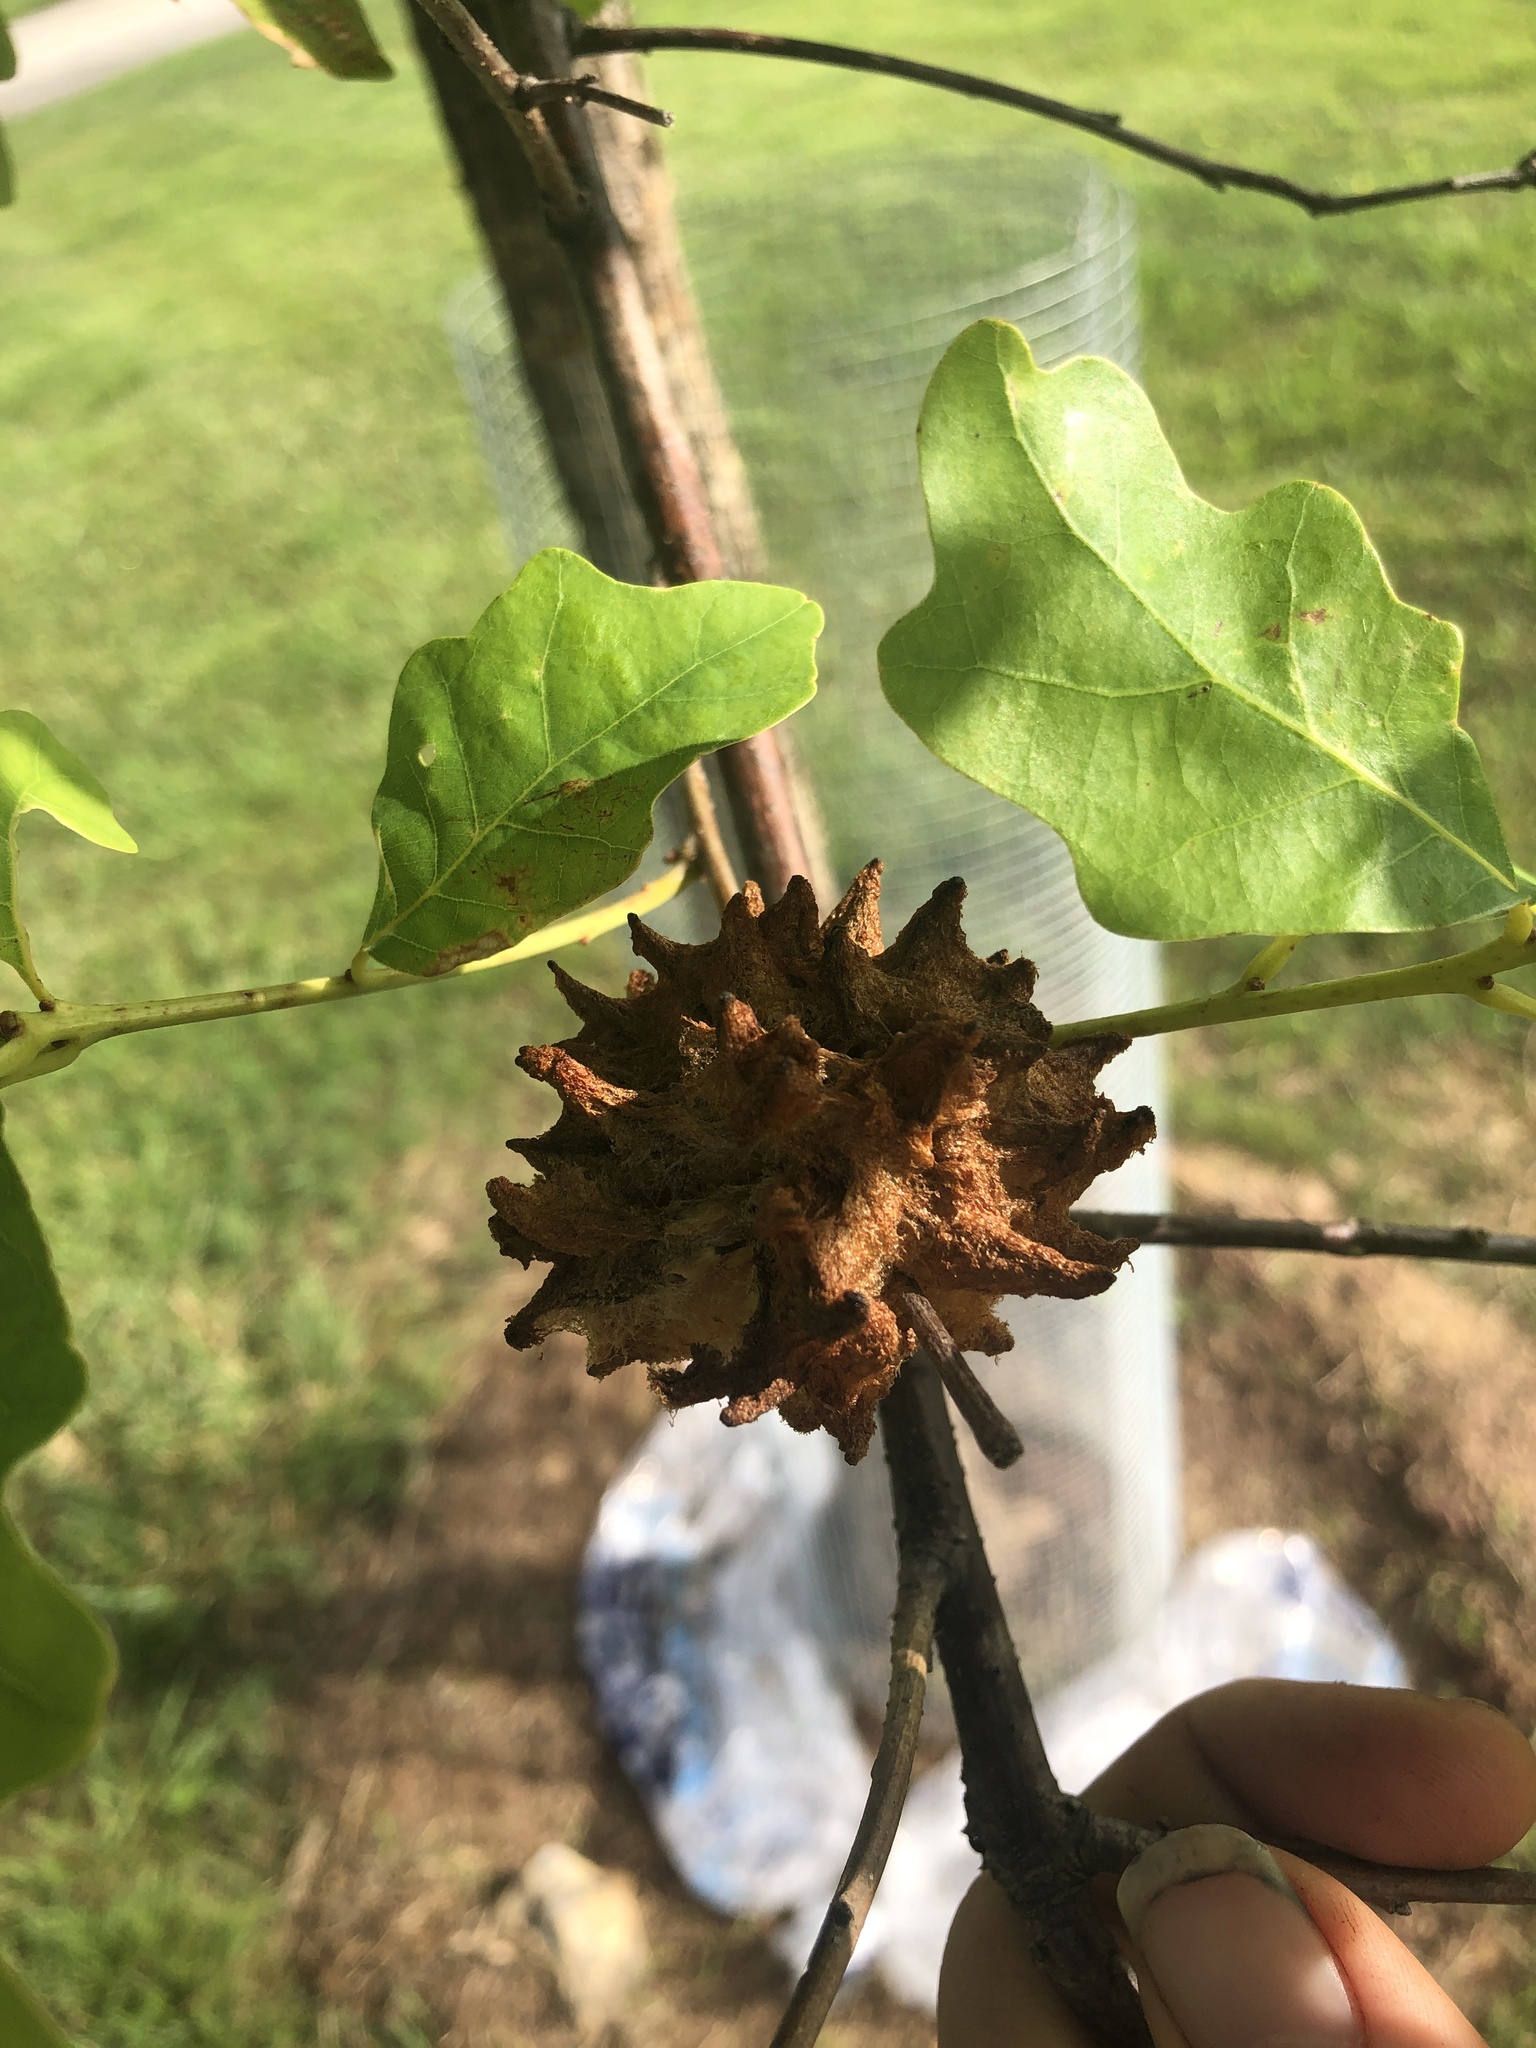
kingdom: Animalia
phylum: Arthropoda
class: Insecta
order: Hymenoptera
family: Cynipidae
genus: Callirhytis
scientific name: Callirhytis
